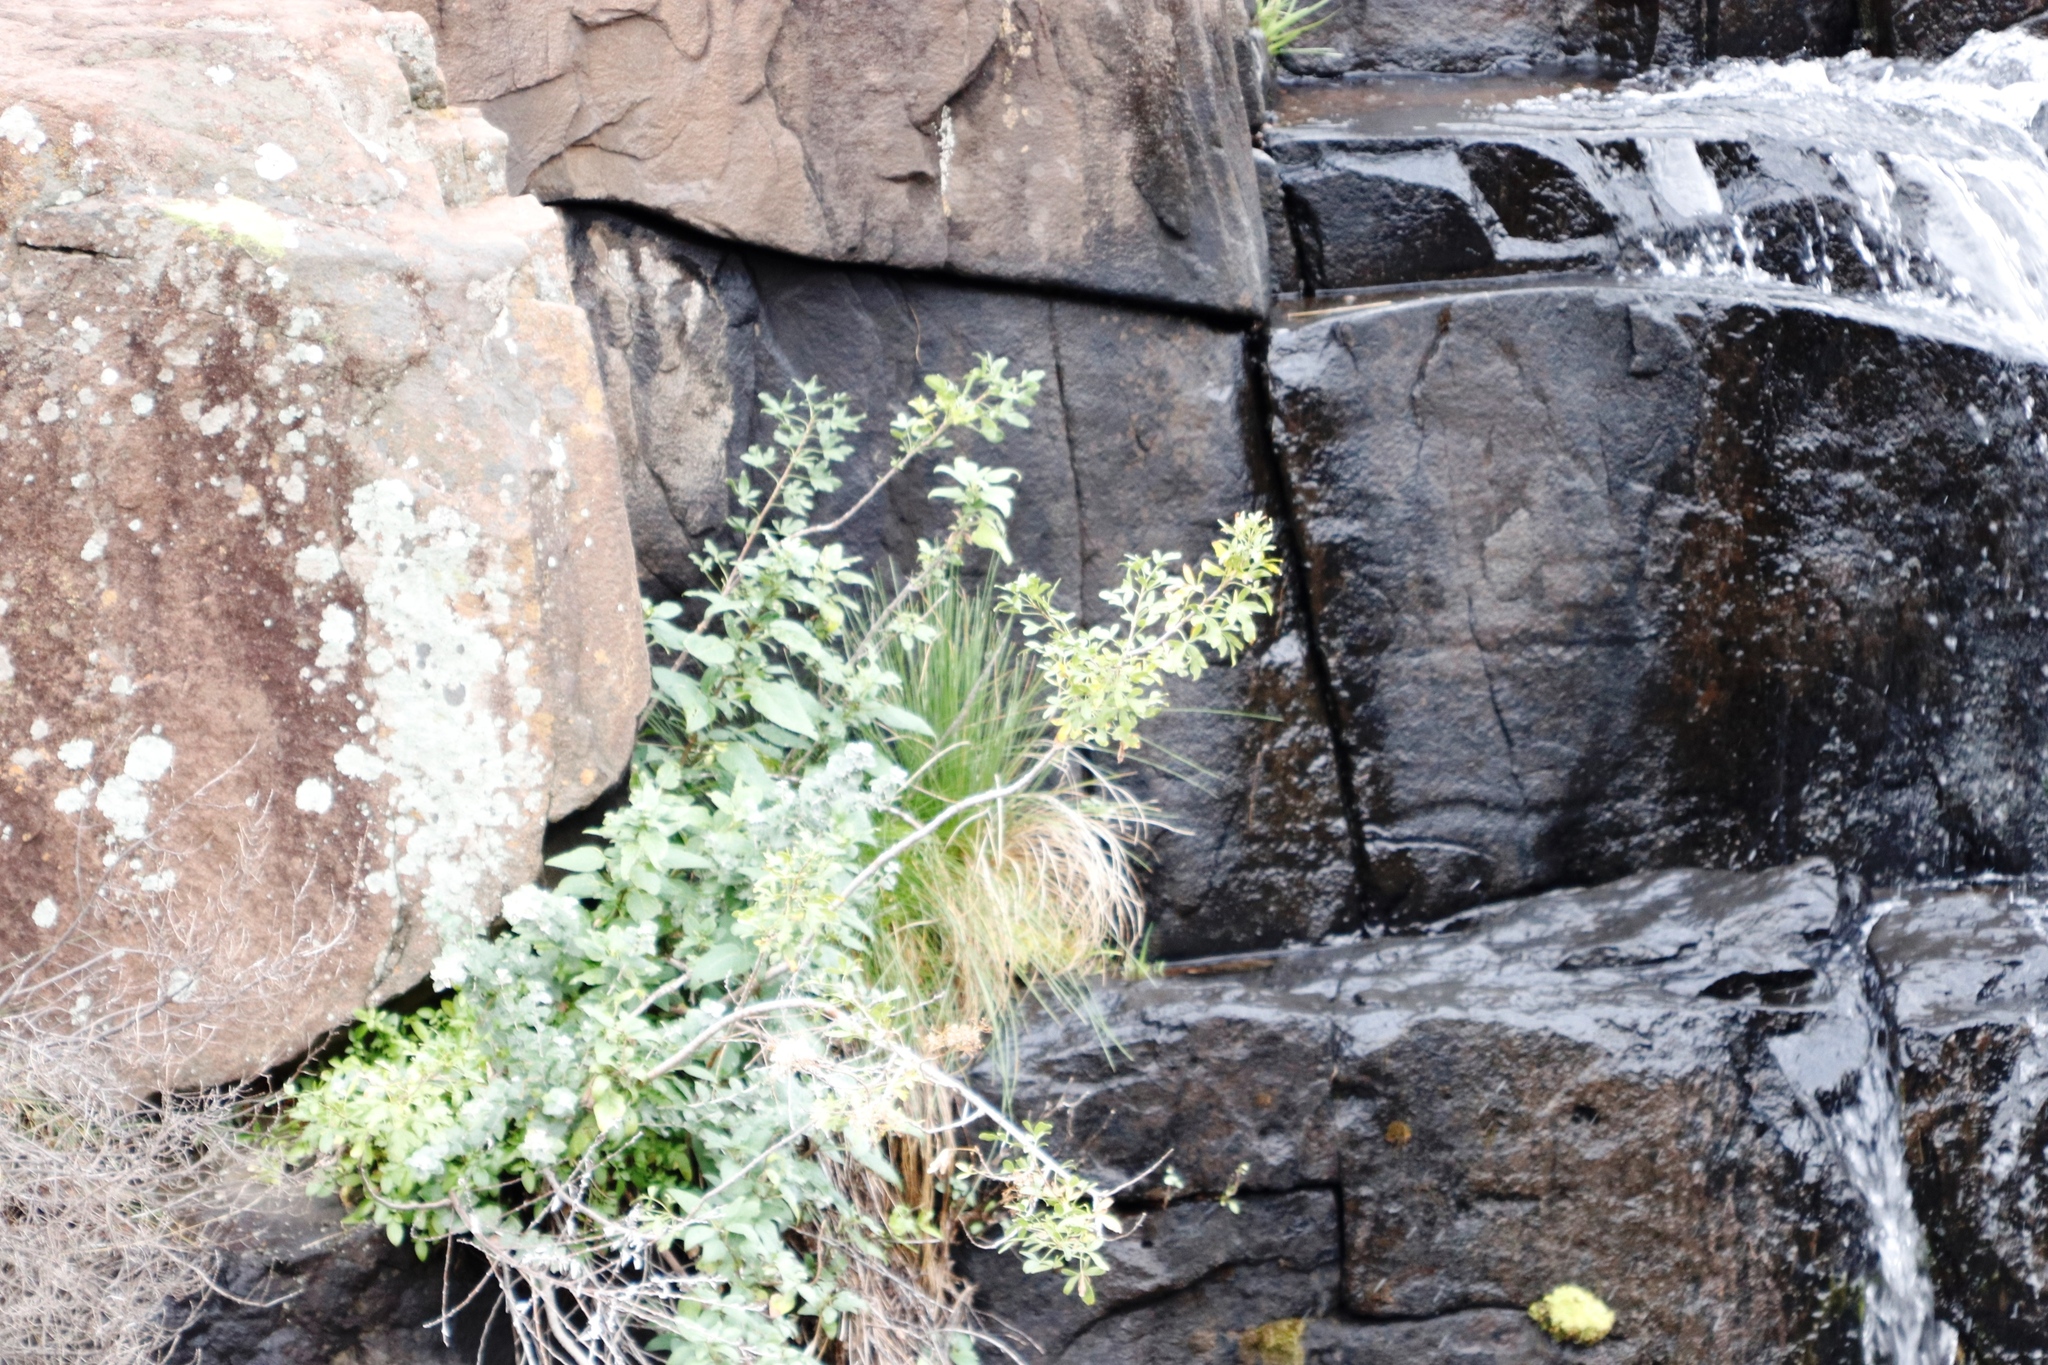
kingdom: Plantae
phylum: Tracheophyta
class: Magnoliopsida
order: Apiales
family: Apiaceae
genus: Polemannia
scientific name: Polemannia simplicior
